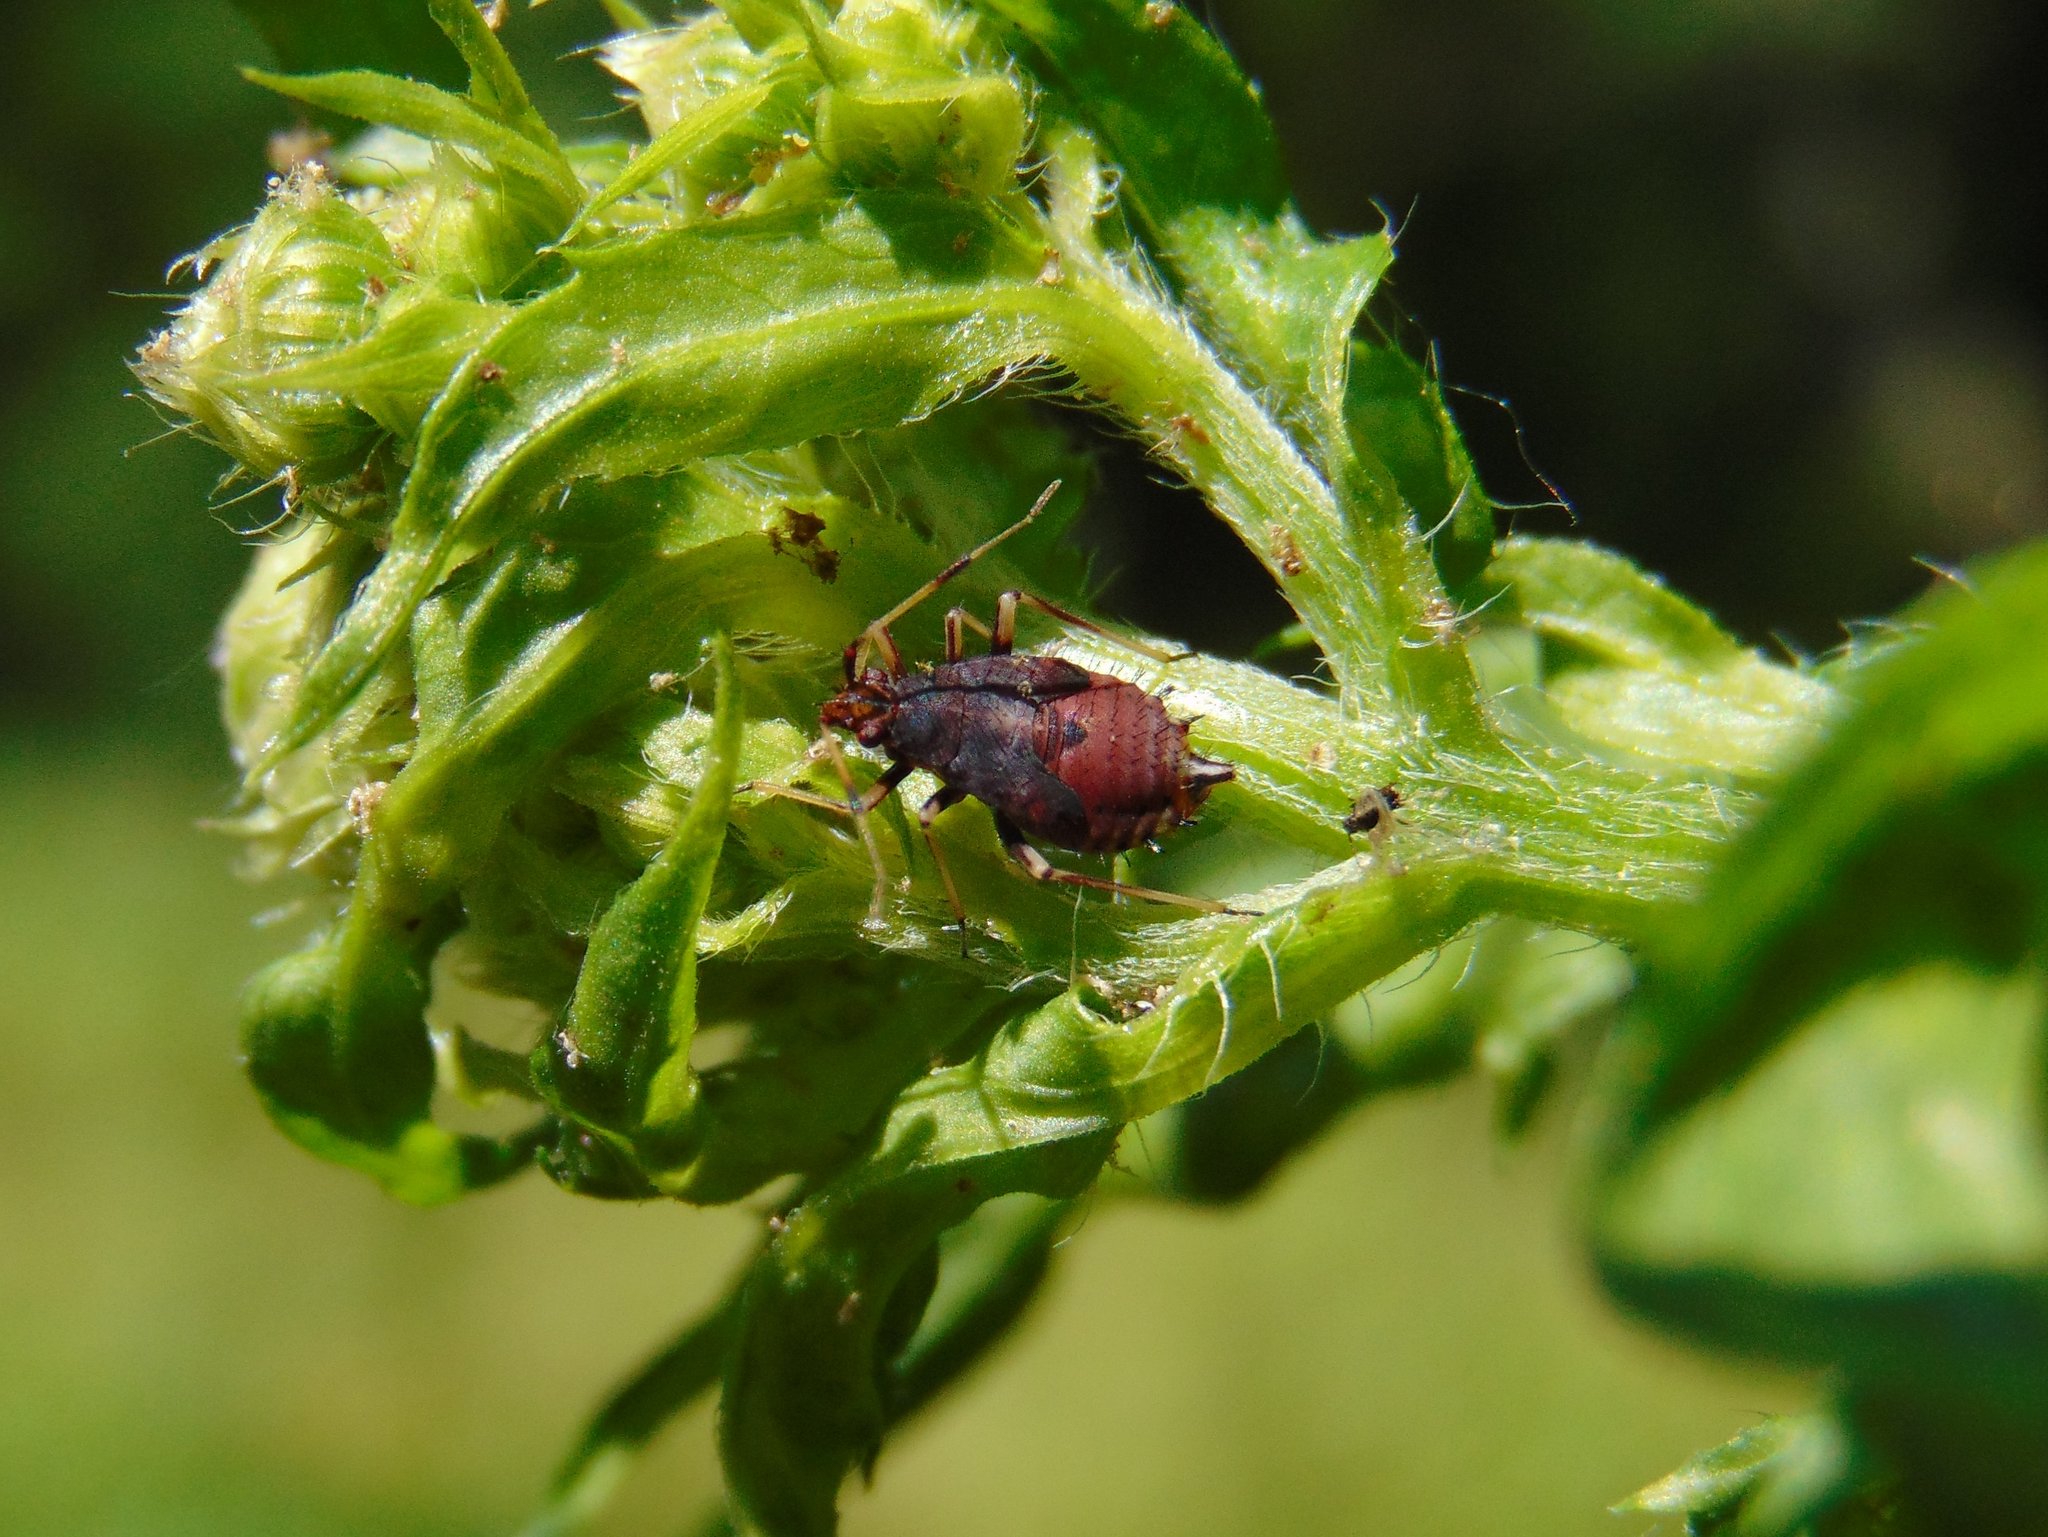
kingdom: Animalia
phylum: Arthropoda
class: Insecta
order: Hemiptera
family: Miridae
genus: Deraeocoris
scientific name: Deraeocoris ruber
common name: Plant bug
